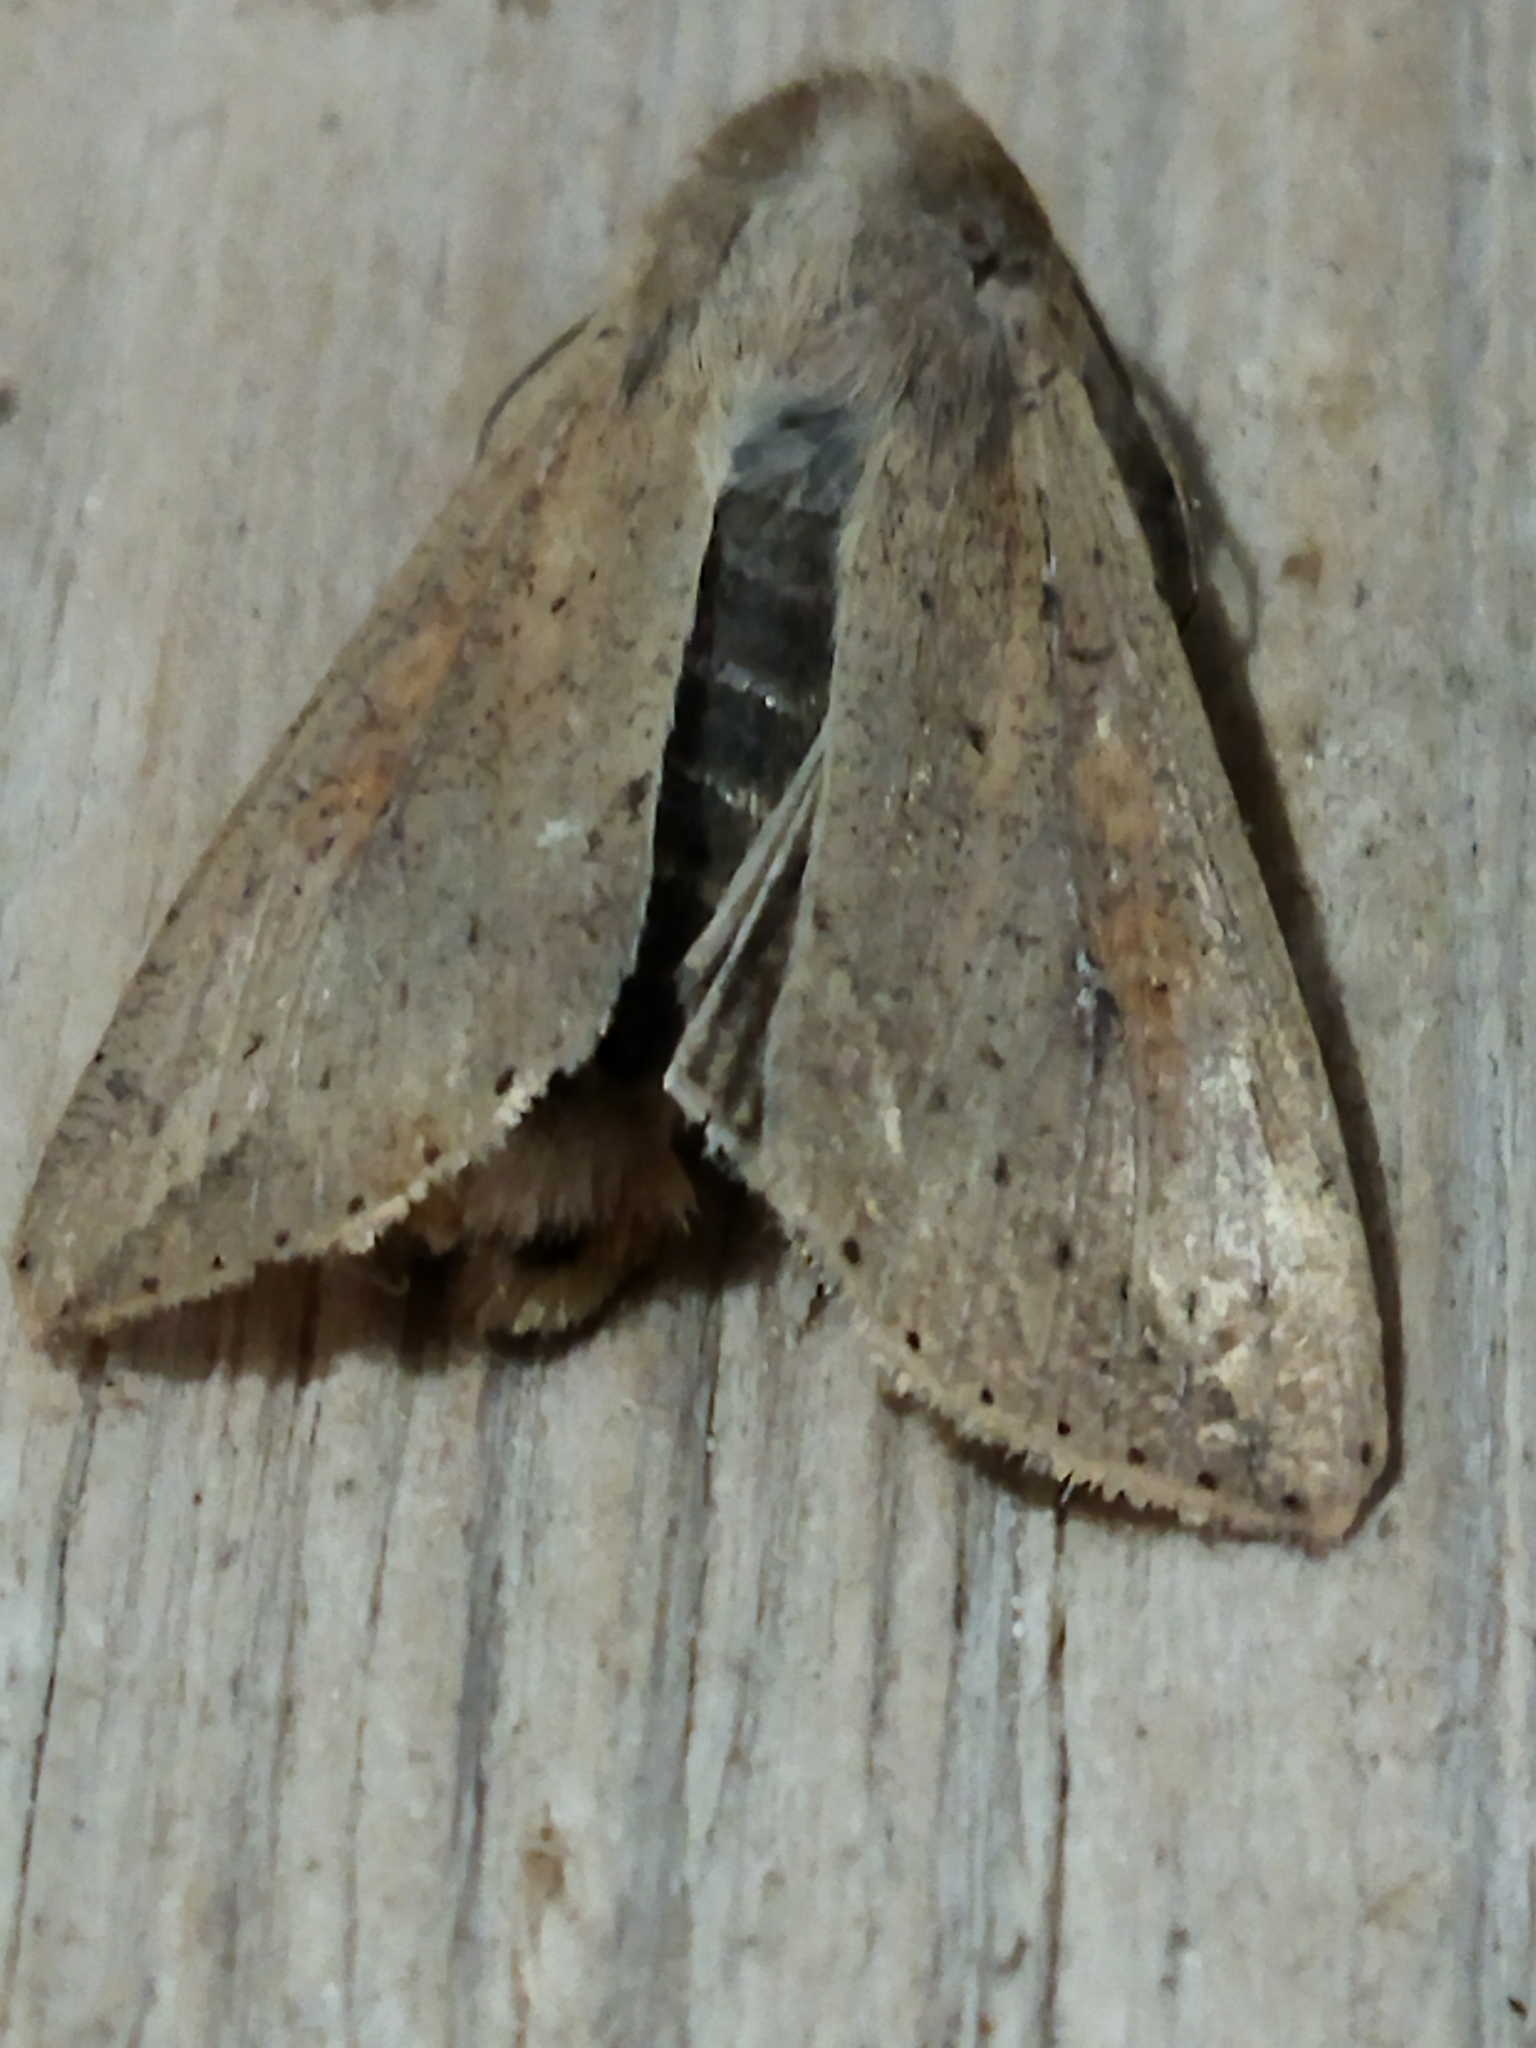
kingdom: Animalia
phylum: Arthropoda
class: Insecta
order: Lepidoptera
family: Noctuidae
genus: Mythimna
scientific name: Mythimna unipuncta
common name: White-speck
